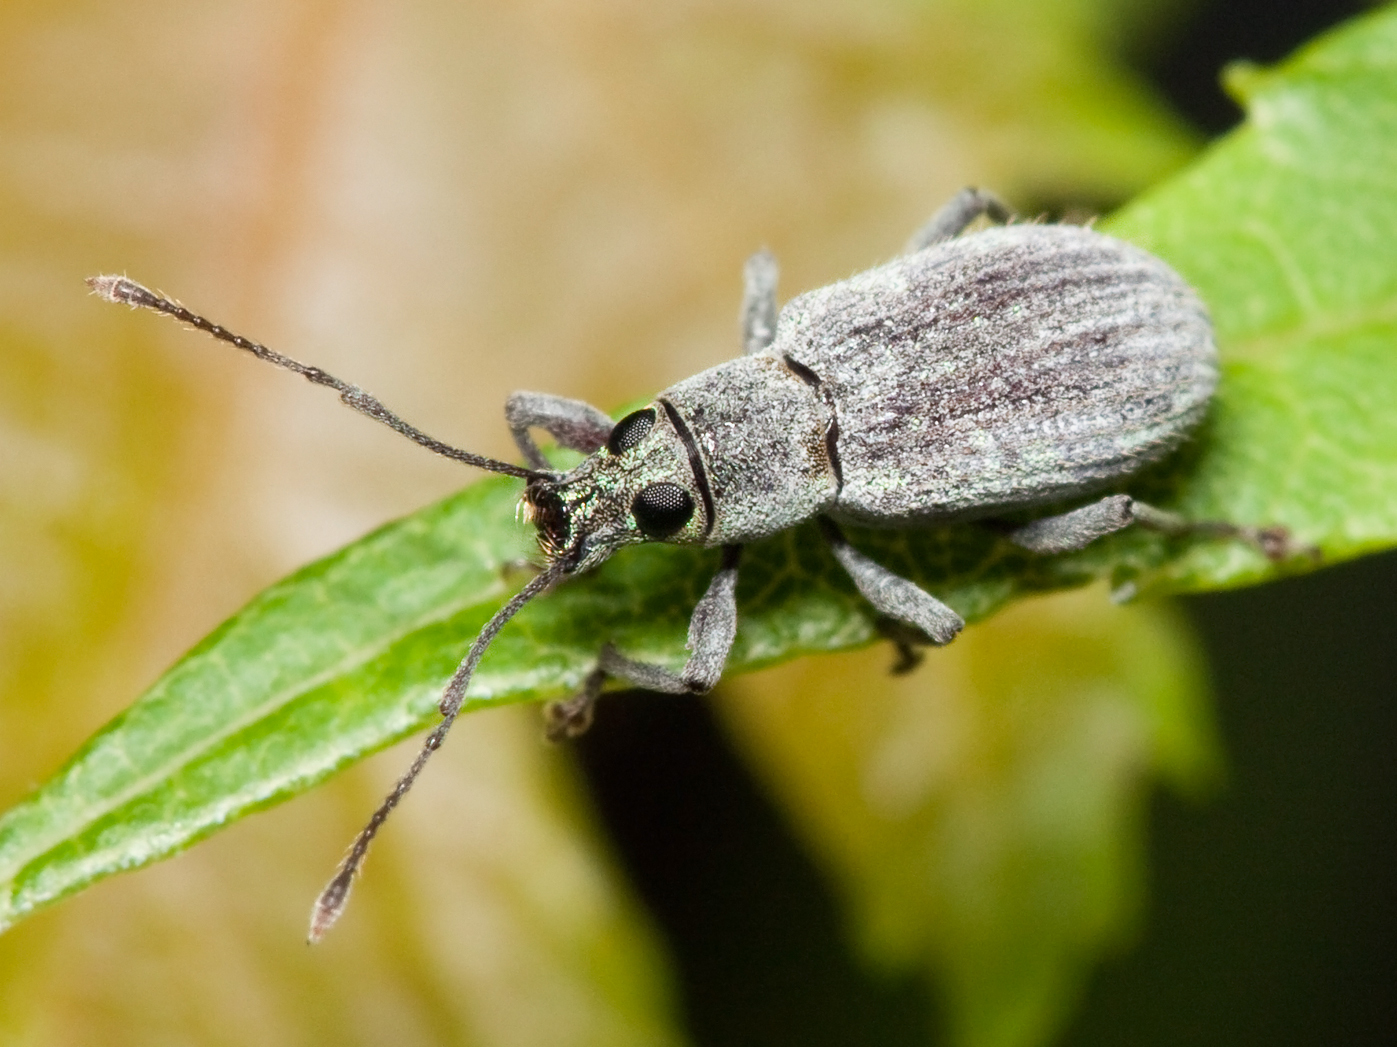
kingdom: Animalia
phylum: Arthropoda
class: Insecta
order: Coleoptera
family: Curculionidae
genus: Cyrtepistomus
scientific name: Cyrtepistomus castaneus
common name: Weevil
